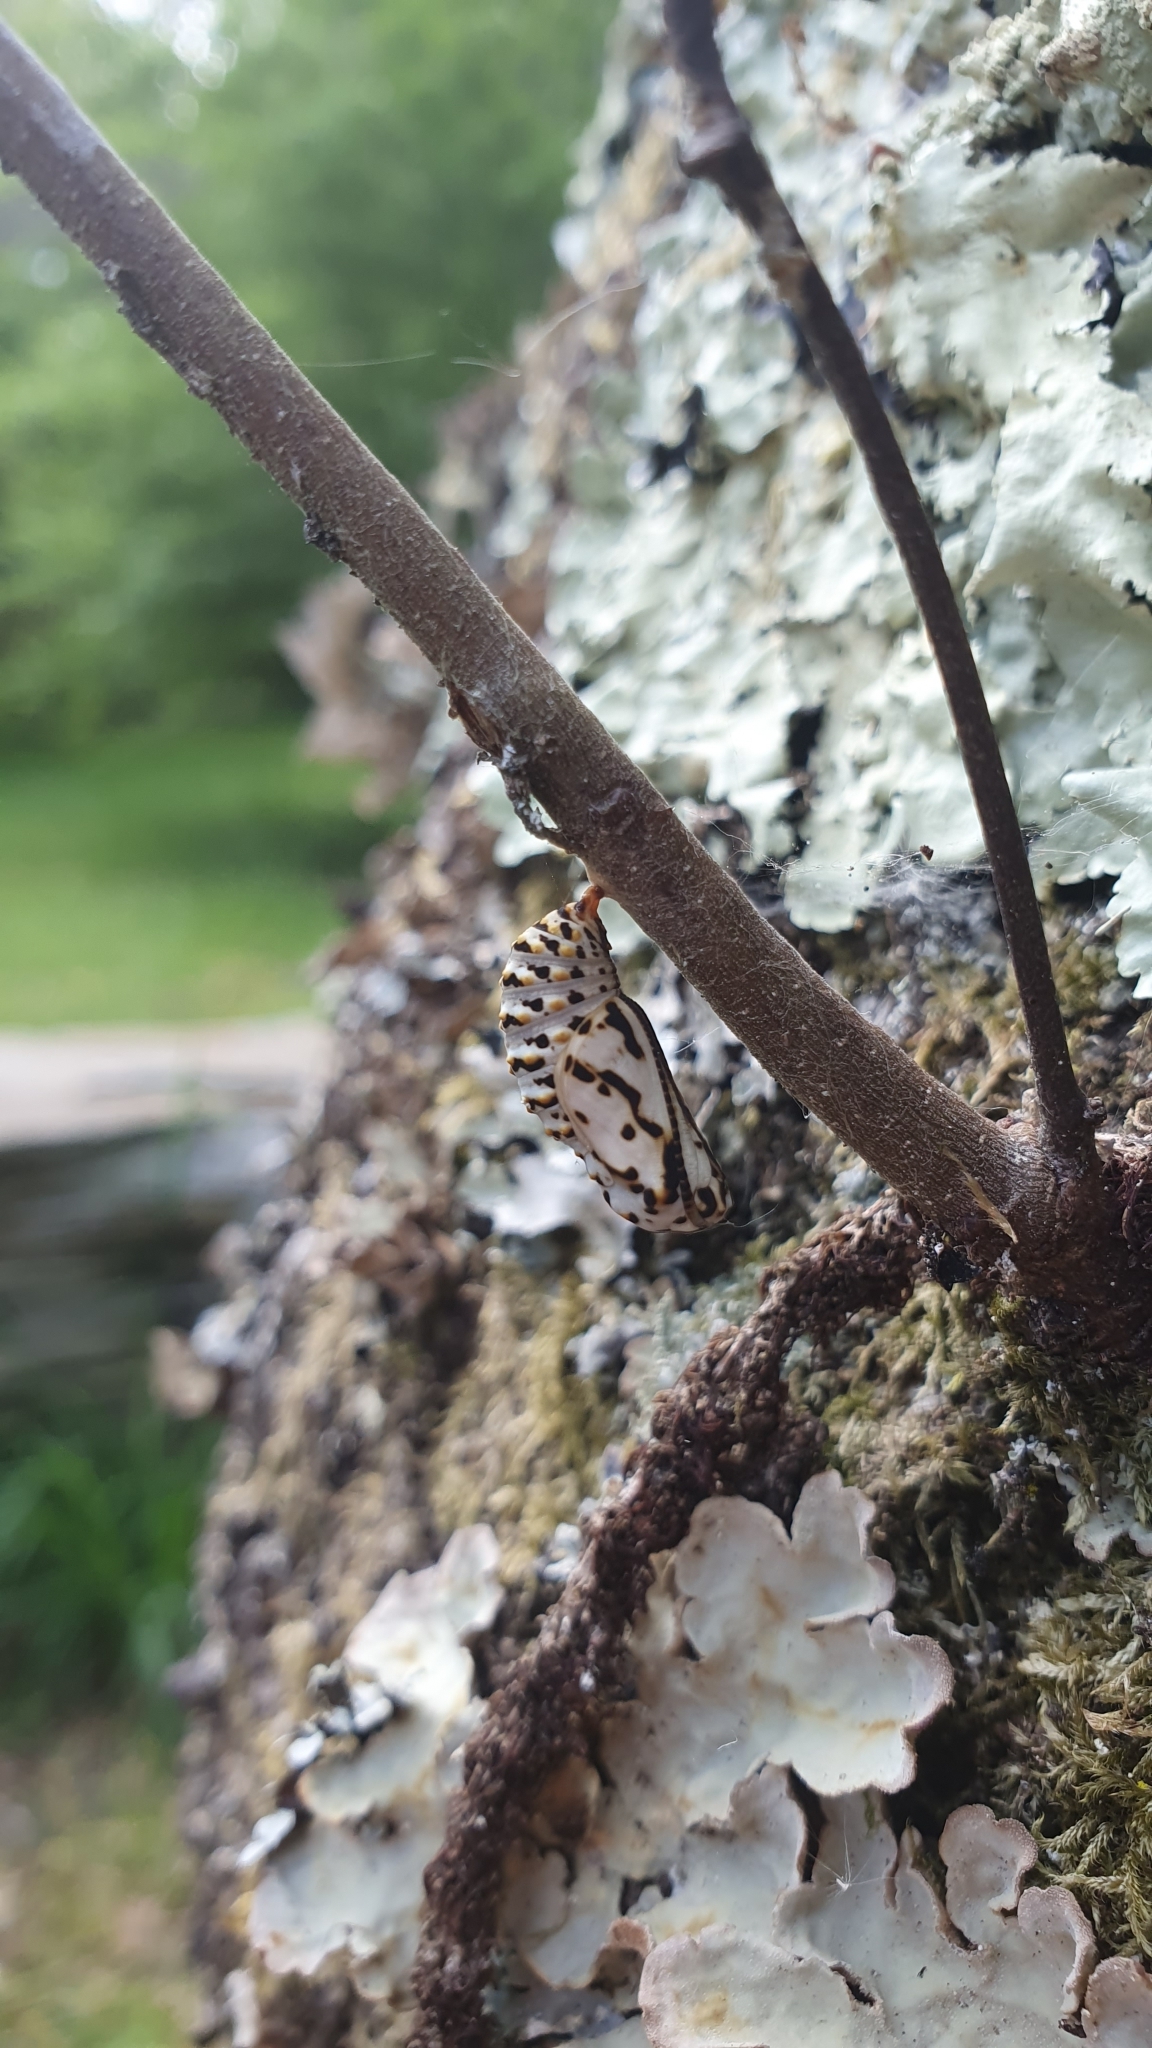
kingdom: Animalia
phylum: Arthropoda
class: Insecta
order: Lepidoptera
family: Nymphalidae
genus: Euphydryas
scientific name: Euphydryas aurinia
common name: Marsh fritillary
